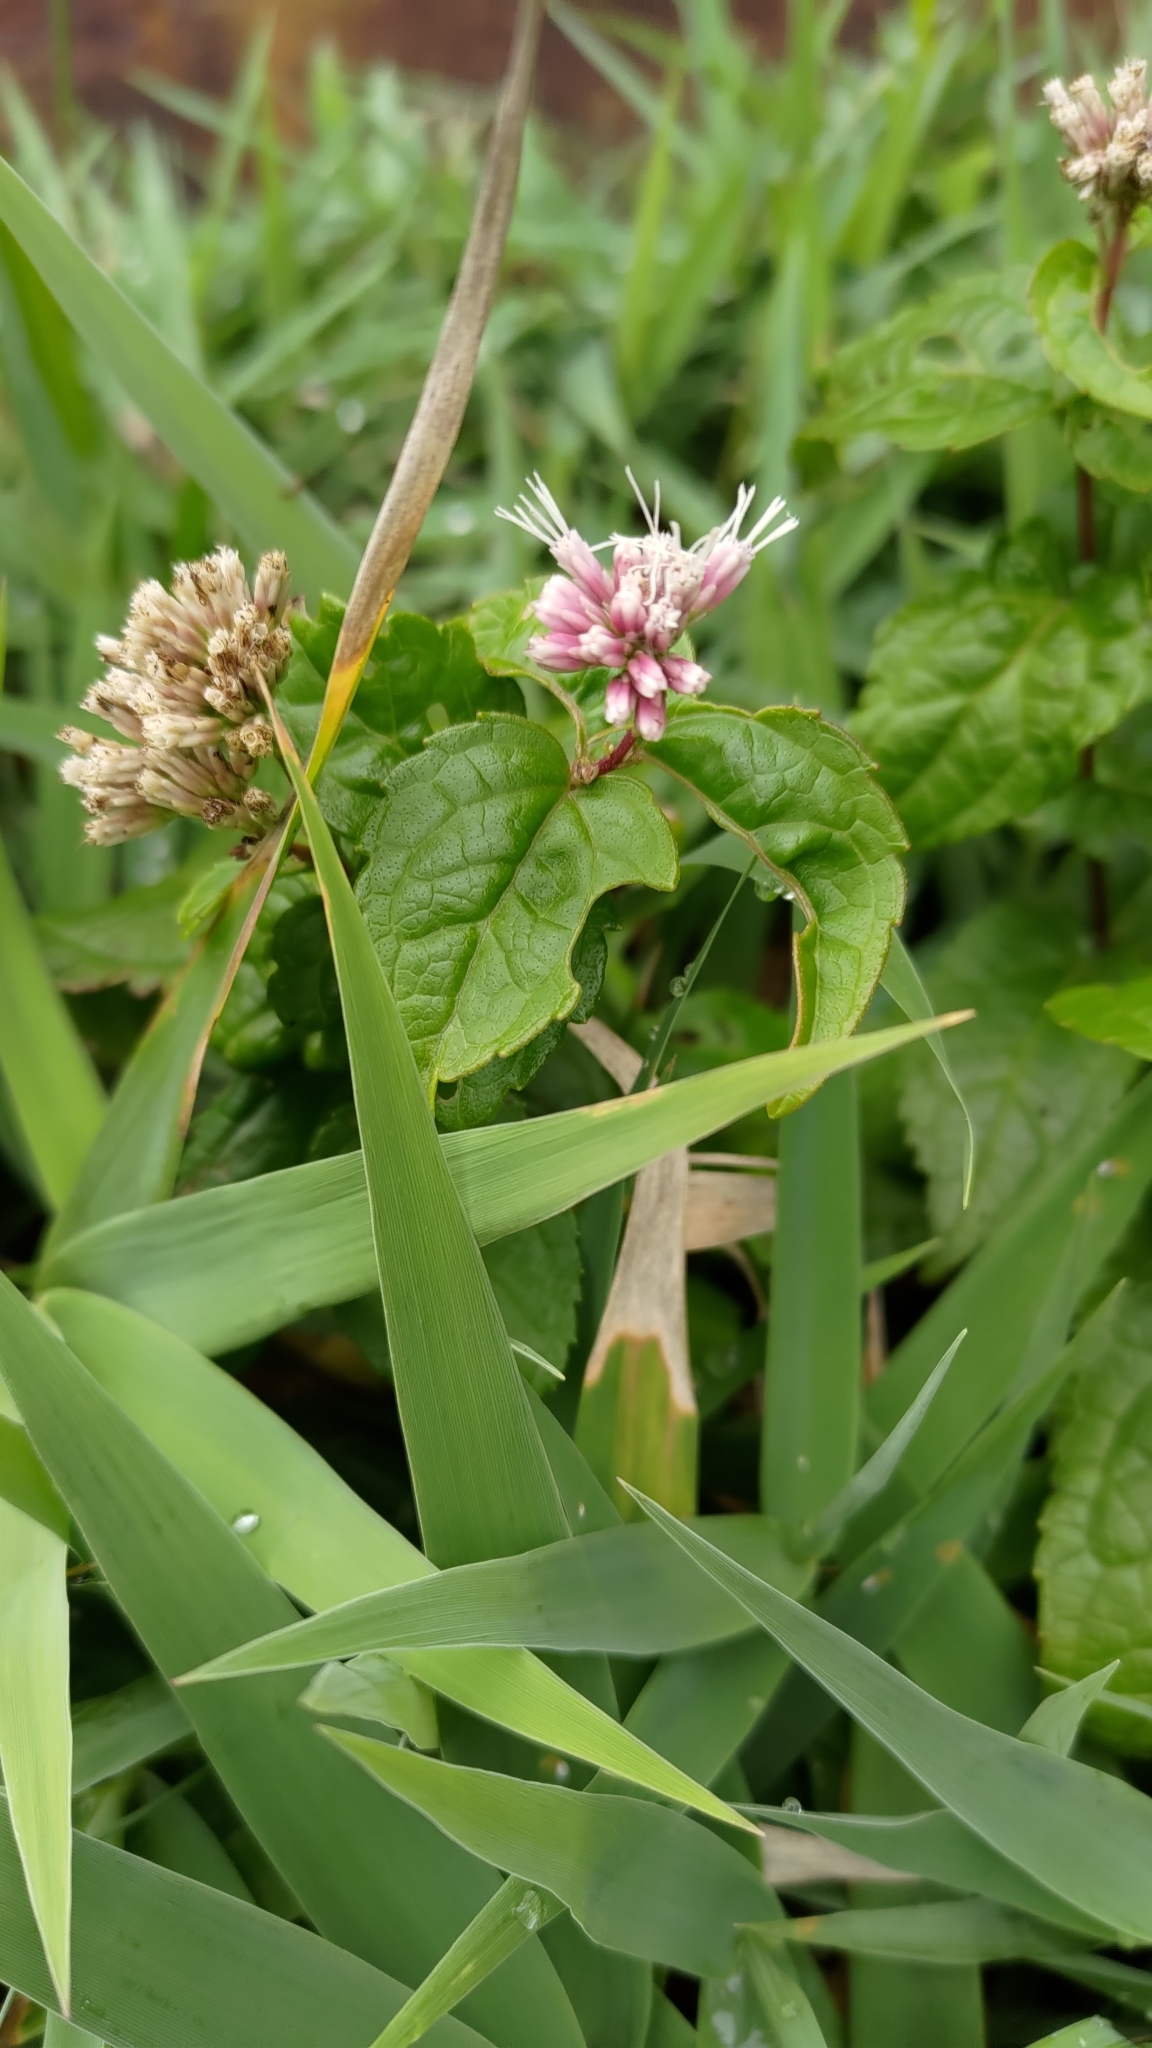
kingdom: Plantae
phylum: Tracheophyta
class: Magnoliopsida
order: Asterales
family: Asteraceae
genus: Eupatorium
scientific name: Eupatorium luchuense
